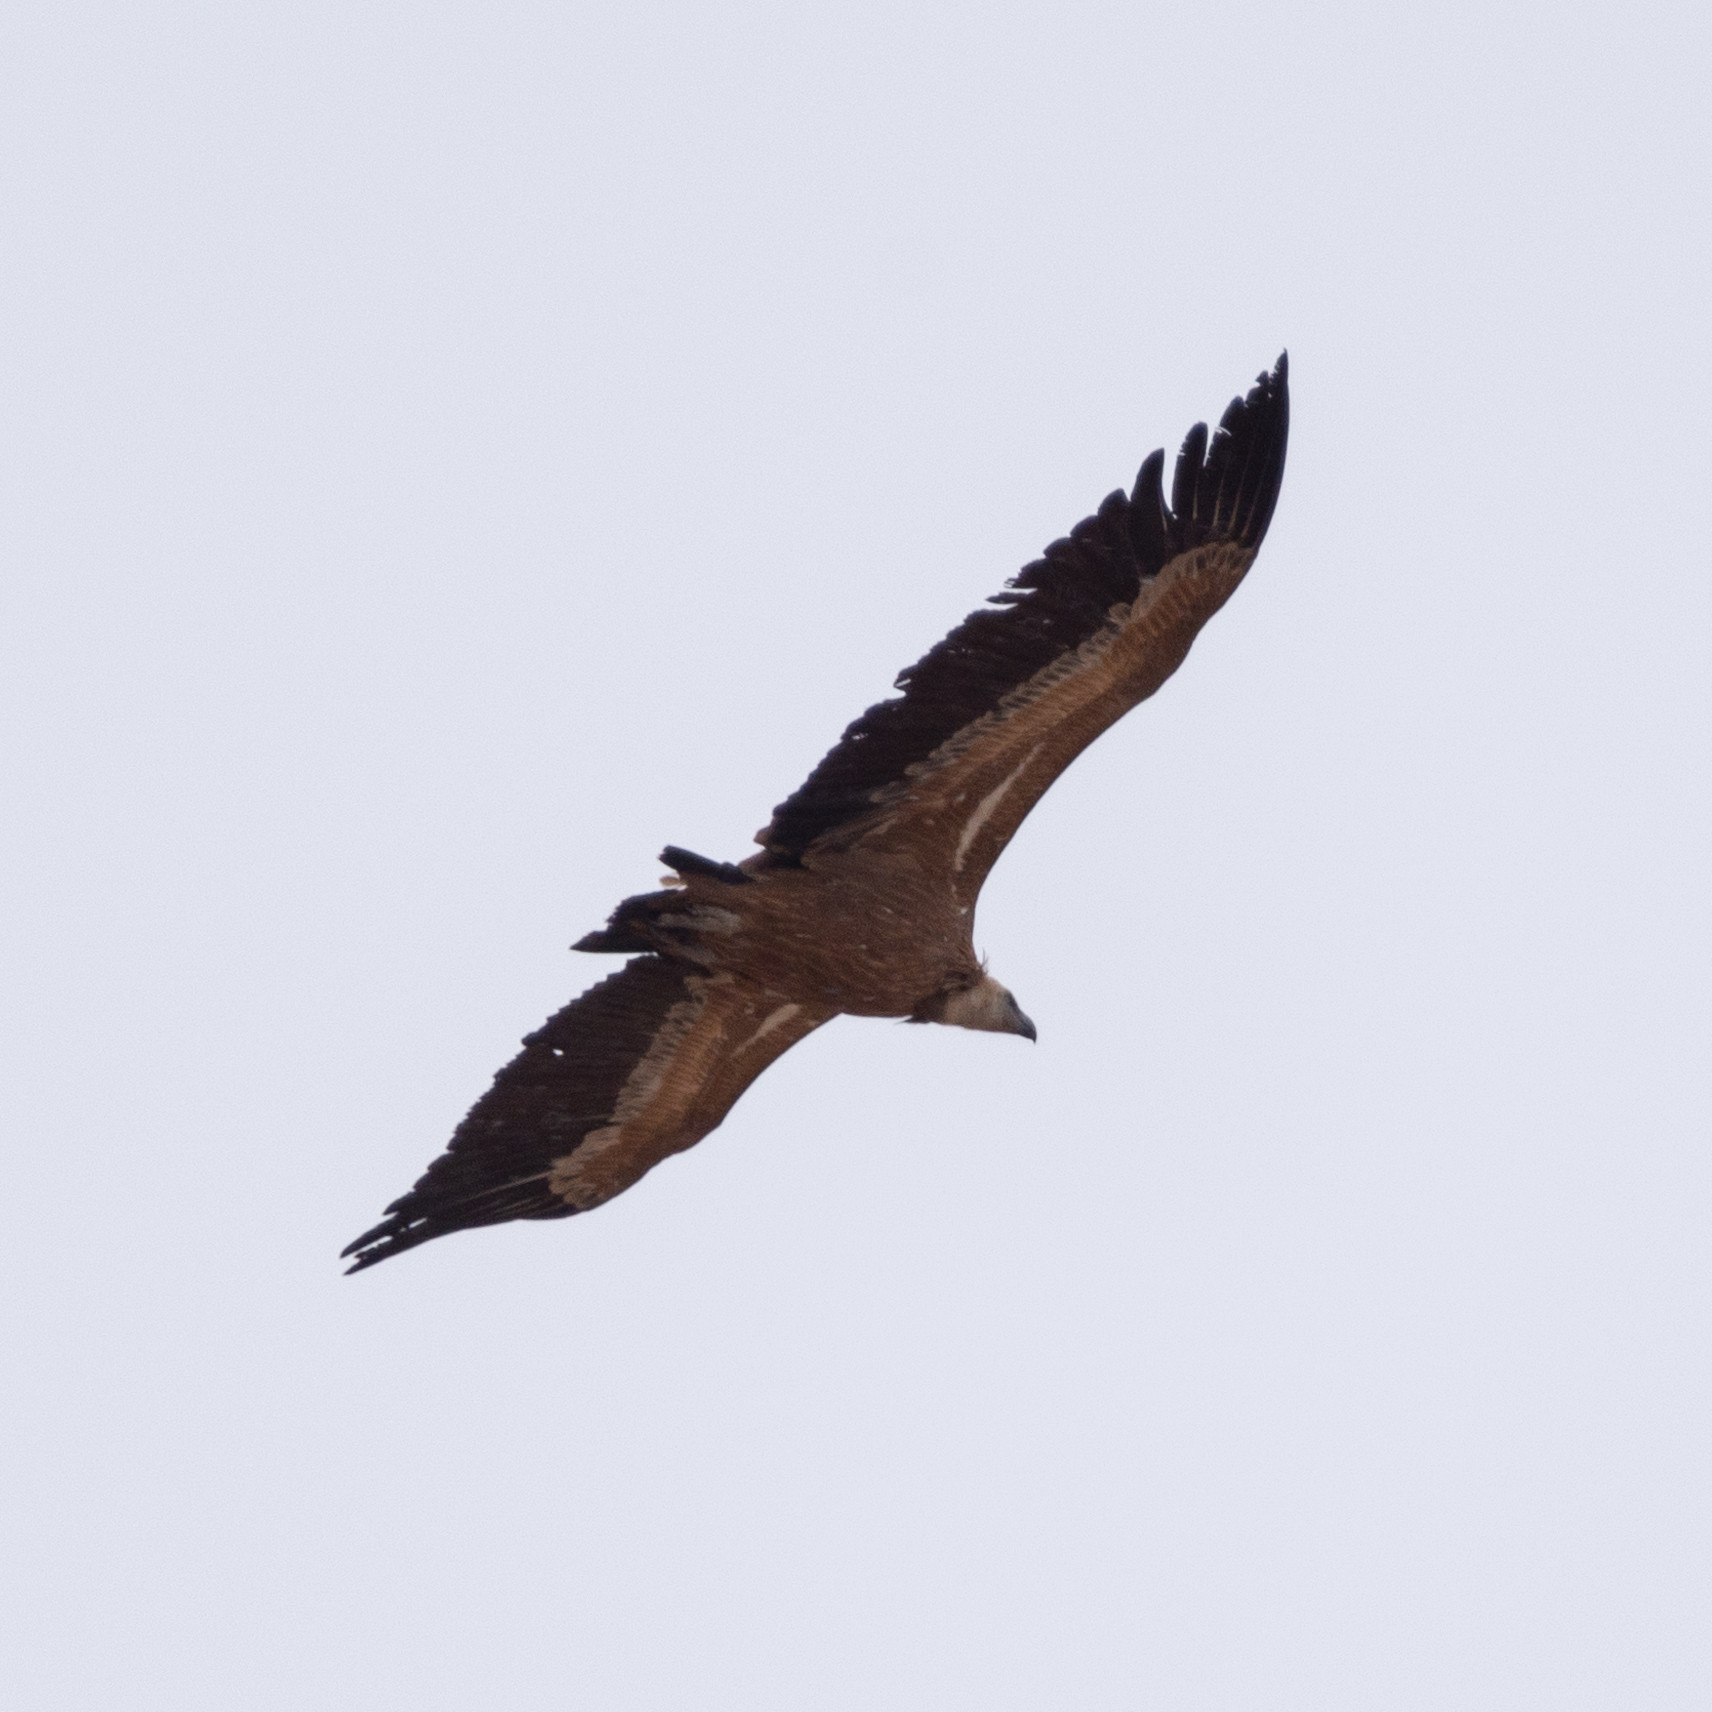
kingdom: Animalia
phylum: Chordata
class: Aves
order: Accipitriformes
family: Accipitridae
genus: Gyps
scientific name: Gyps fulvus
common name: Griffon vulture
